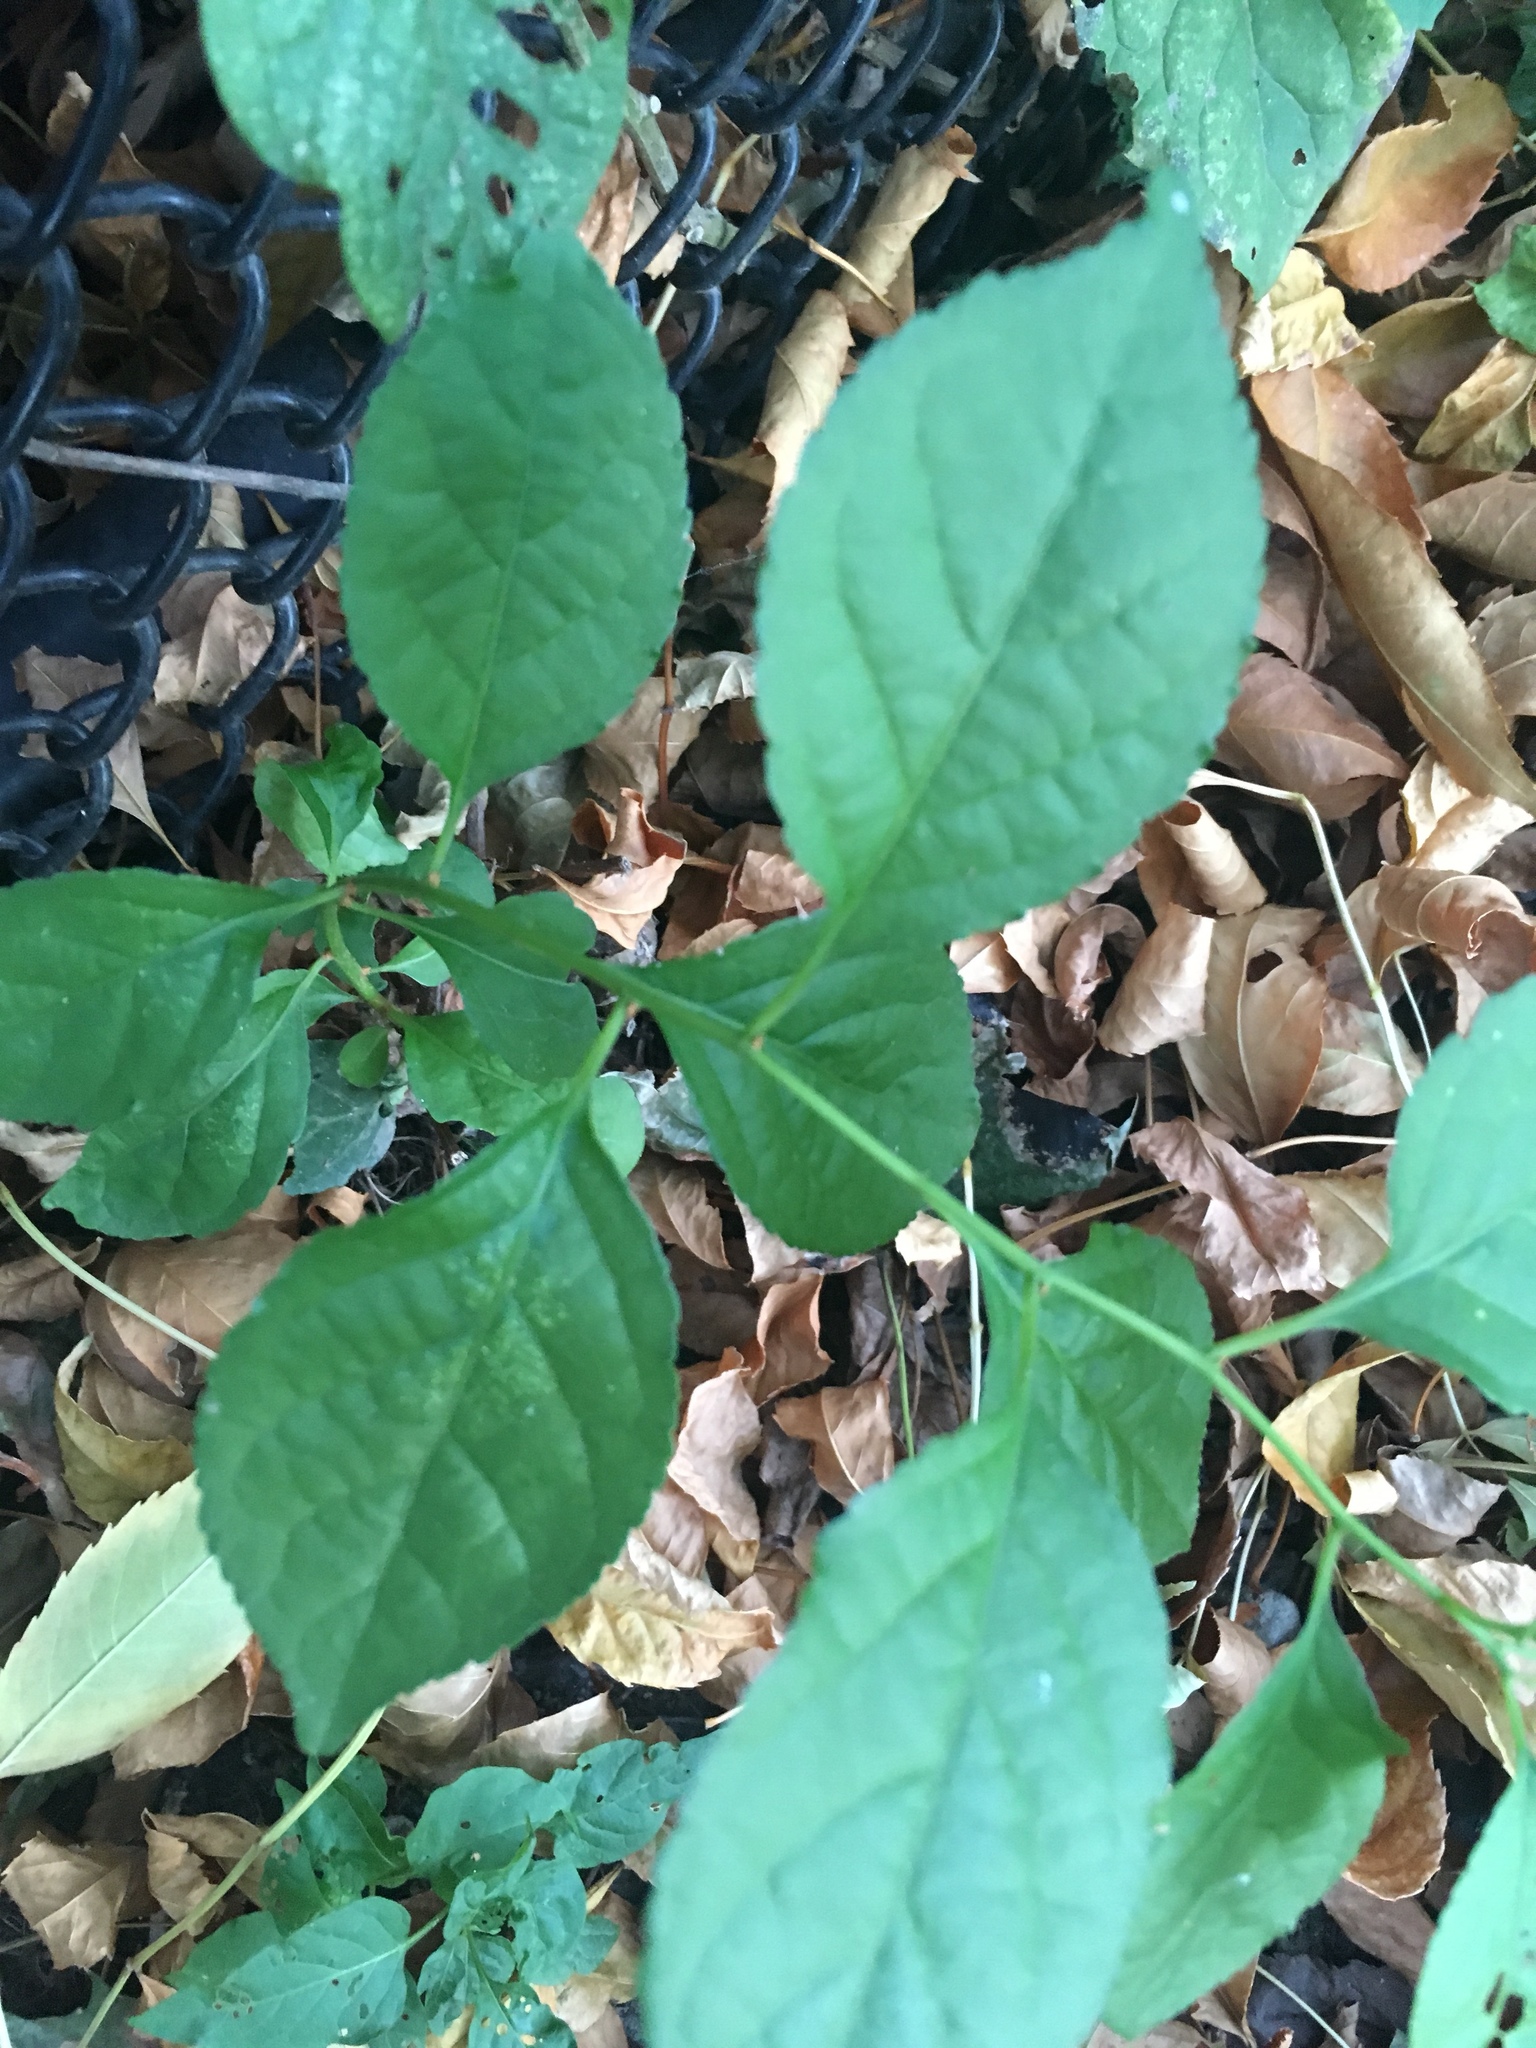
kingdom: Plantae
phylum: Tracheophyta
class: Magnoliopsida
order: Celastrales
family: Celastraceae
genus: Celastrus
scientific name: Celastrus orbiculatus
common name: Oriental bittersweet
